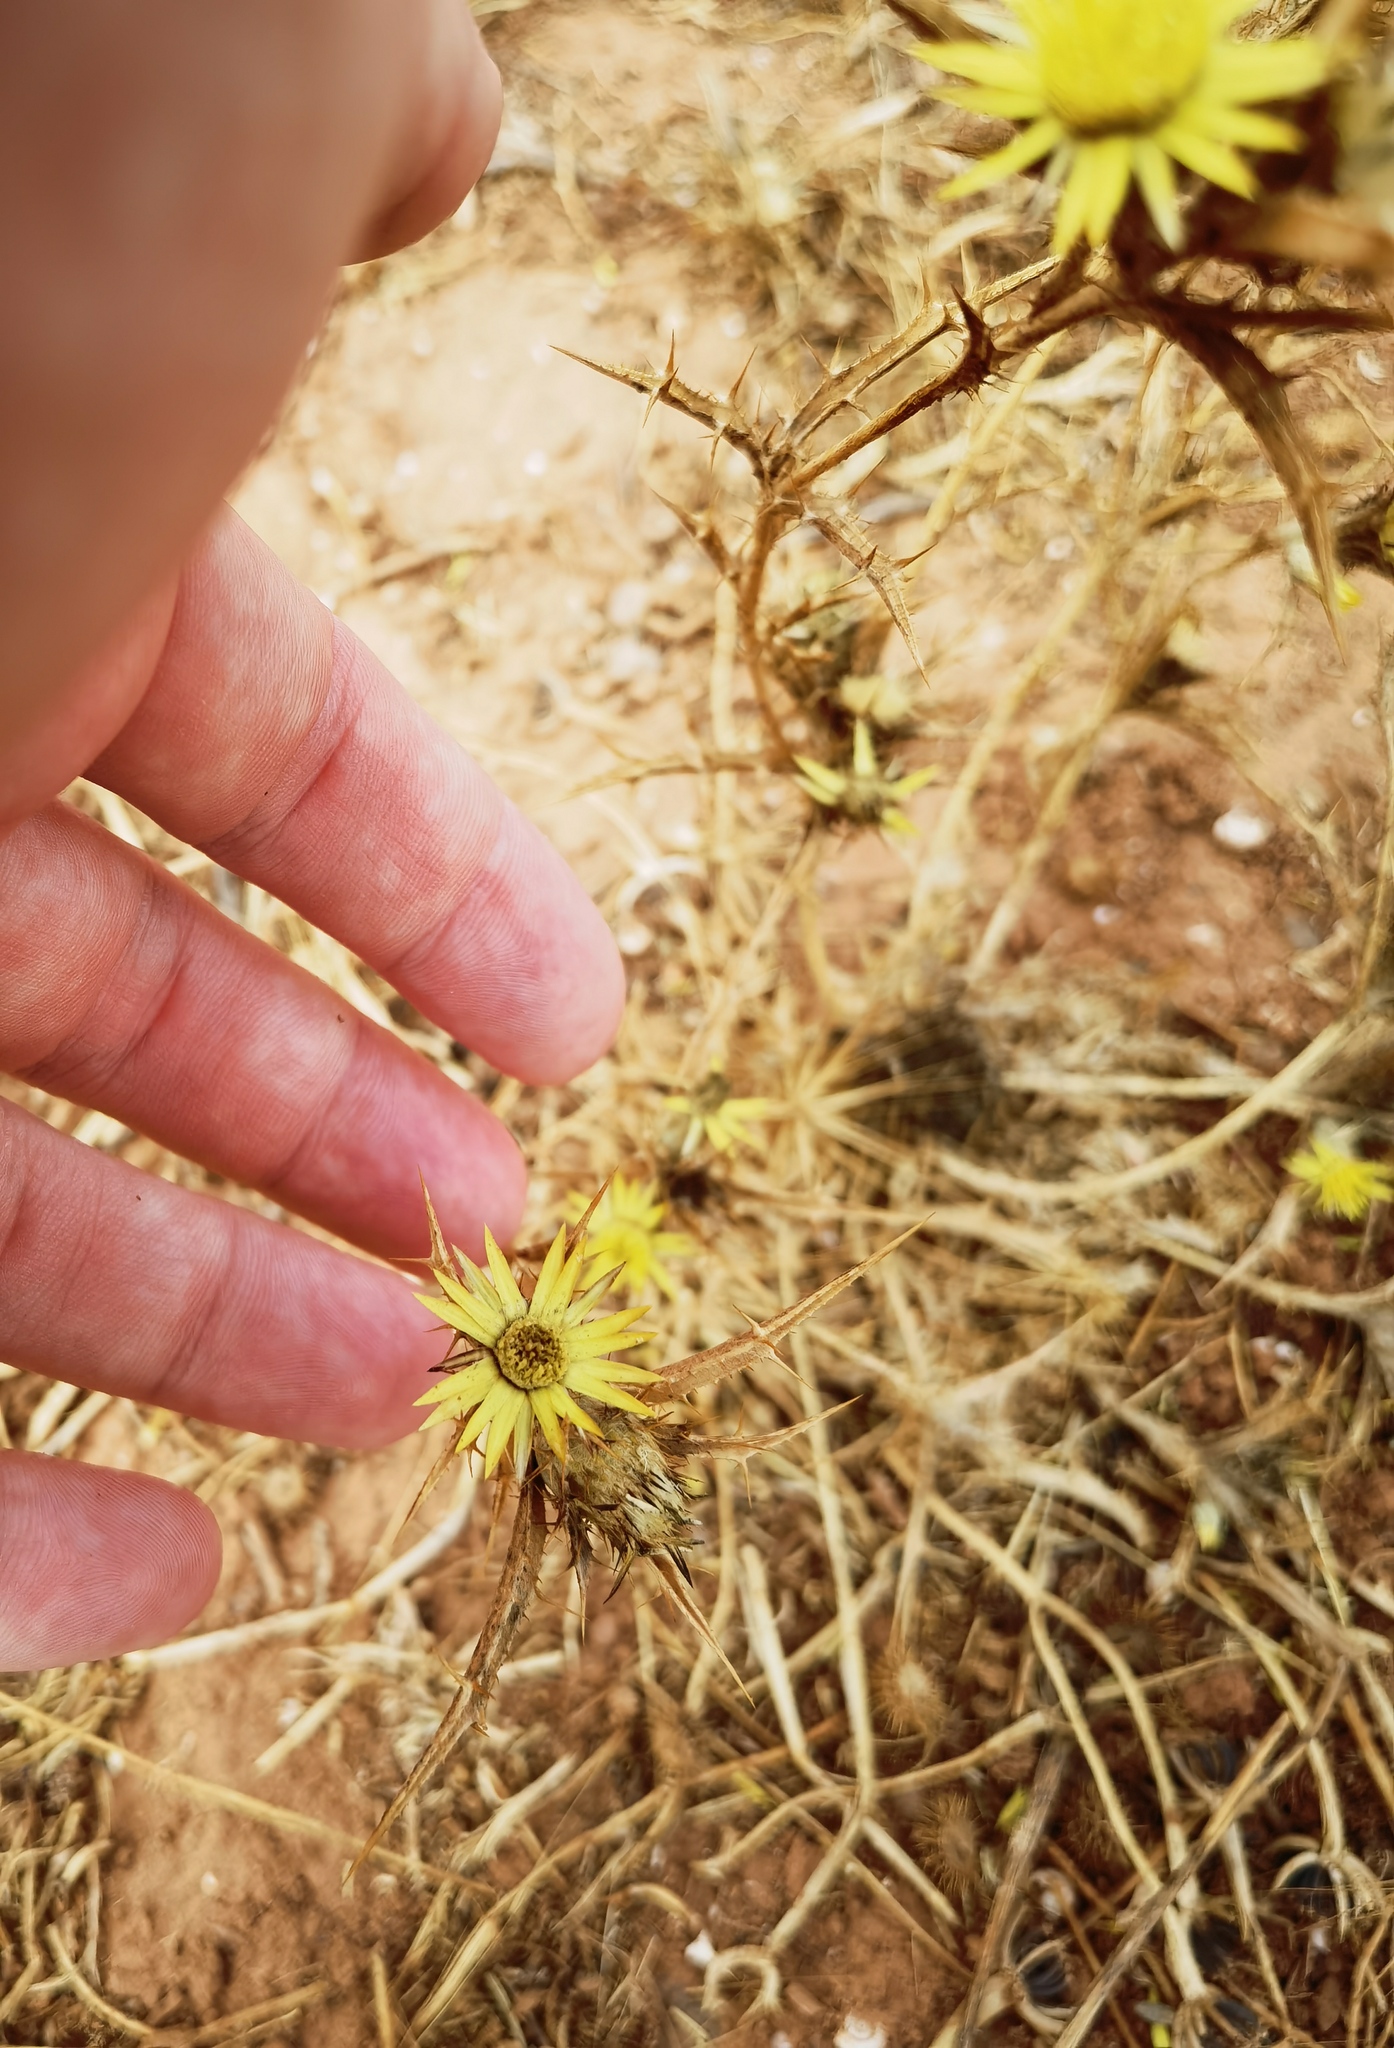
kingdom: Plantae
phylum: Tracheophyta
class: Magnoliopsida
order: Asterales
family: Asteraceae
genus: Carlina
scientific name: Carlina racemosa
